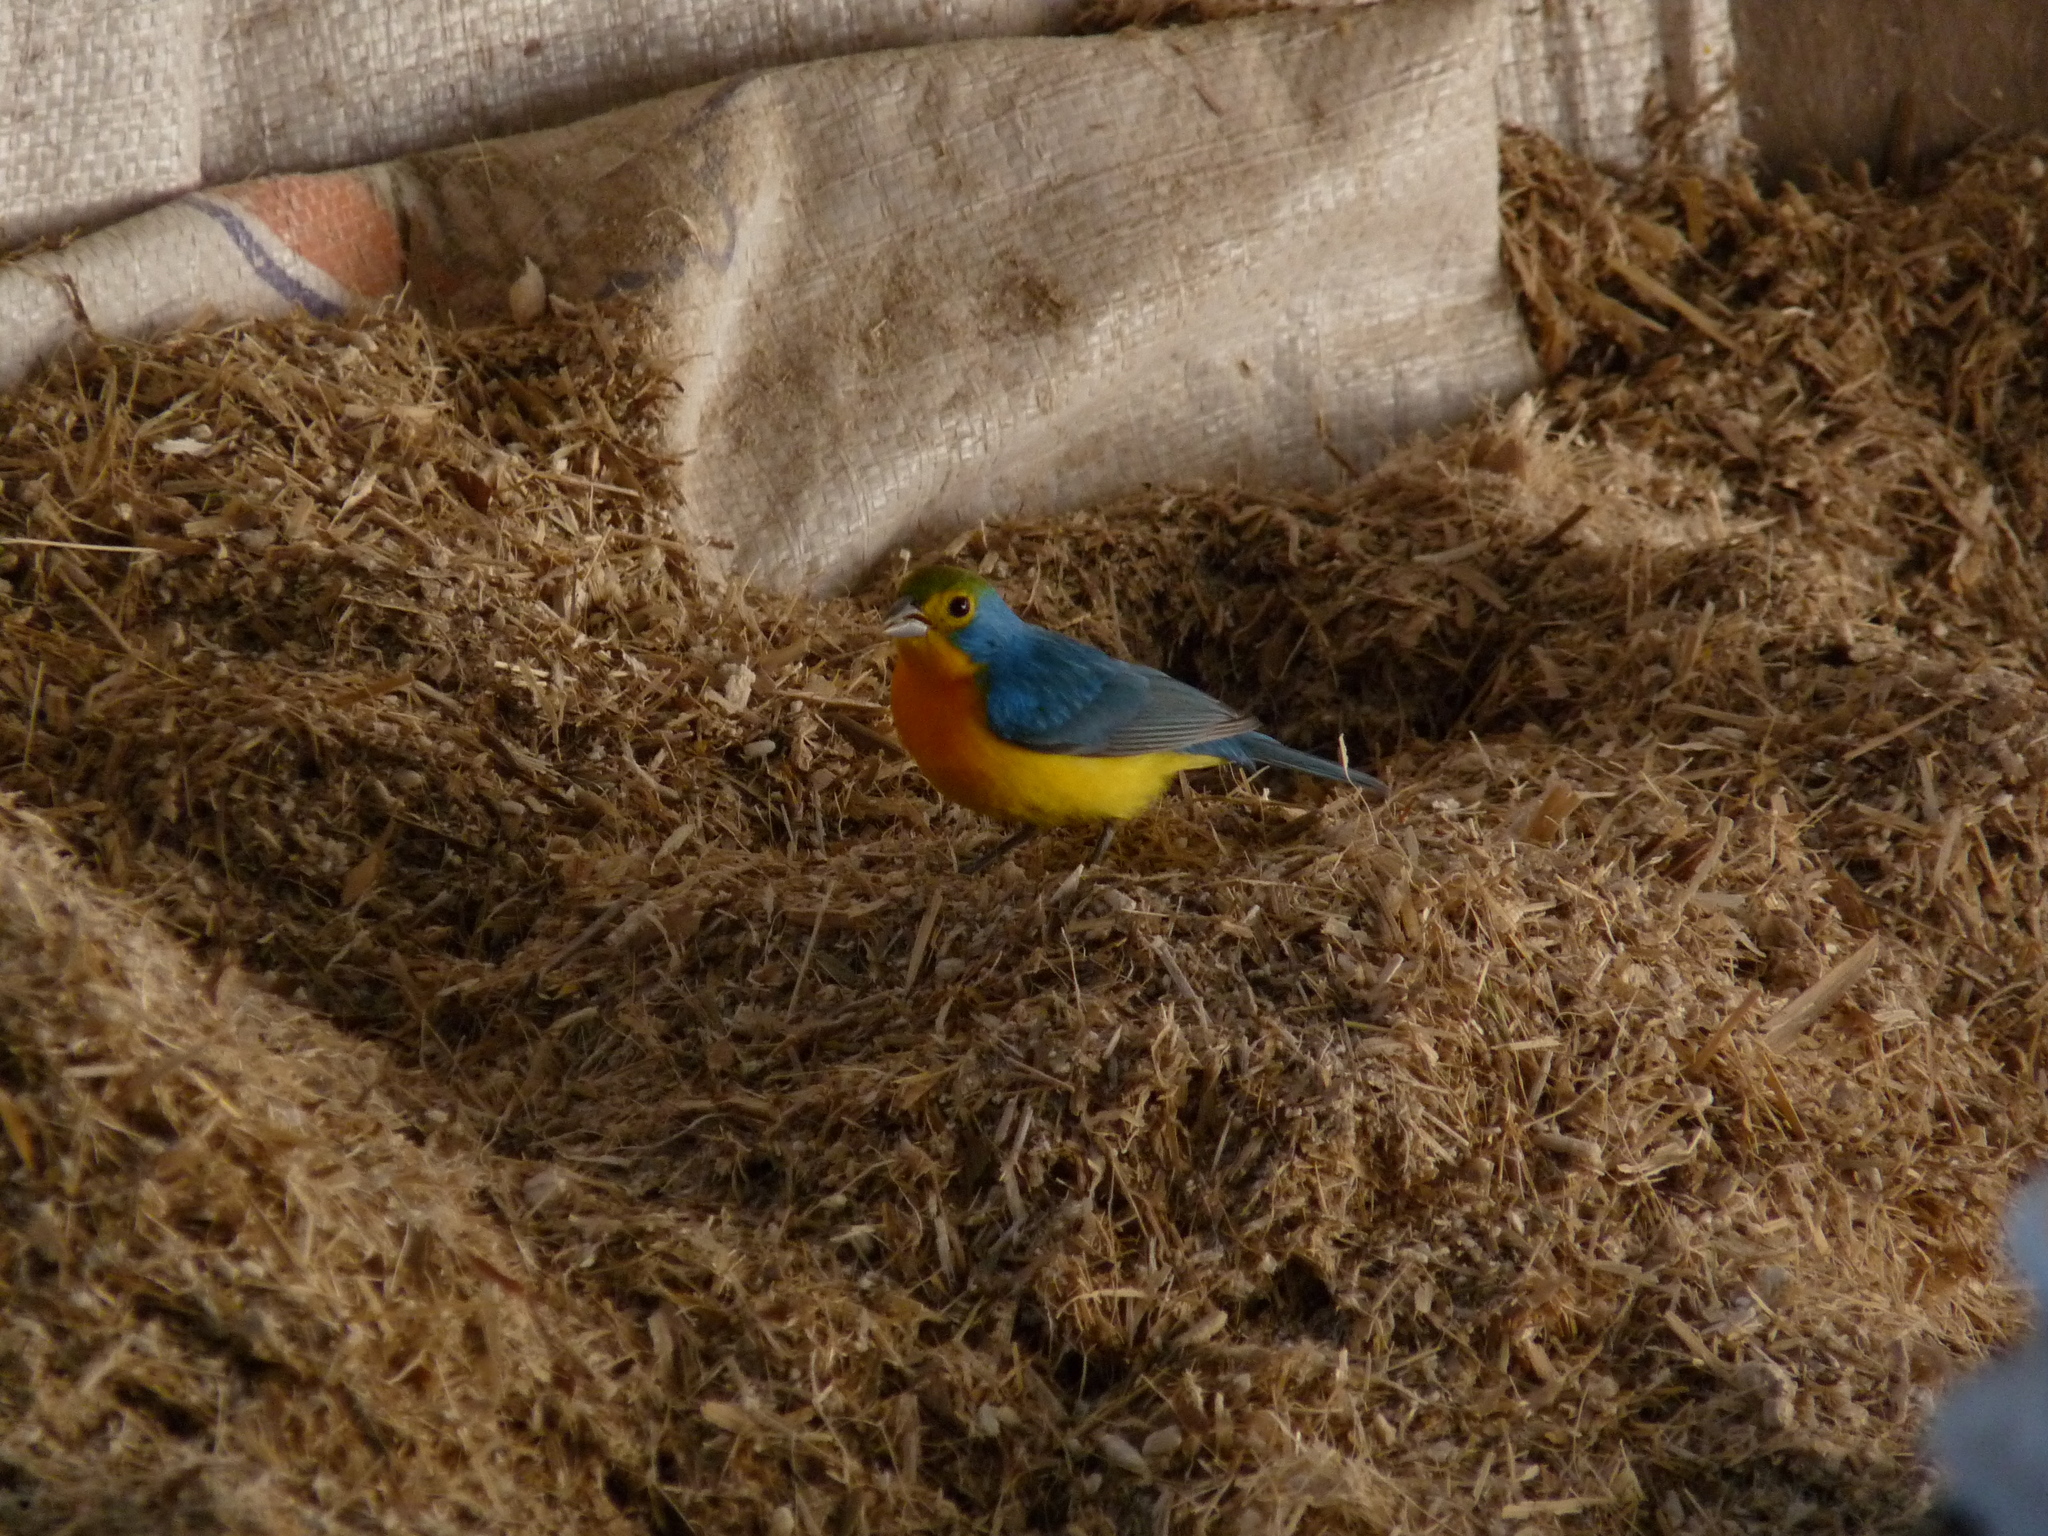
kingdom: Animalia
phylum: Chordata
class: Aves
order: Passeriformes
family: Cardinalidae
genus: Passerina
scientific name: Passerina leclancherii
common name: Orange-breasted bunting
